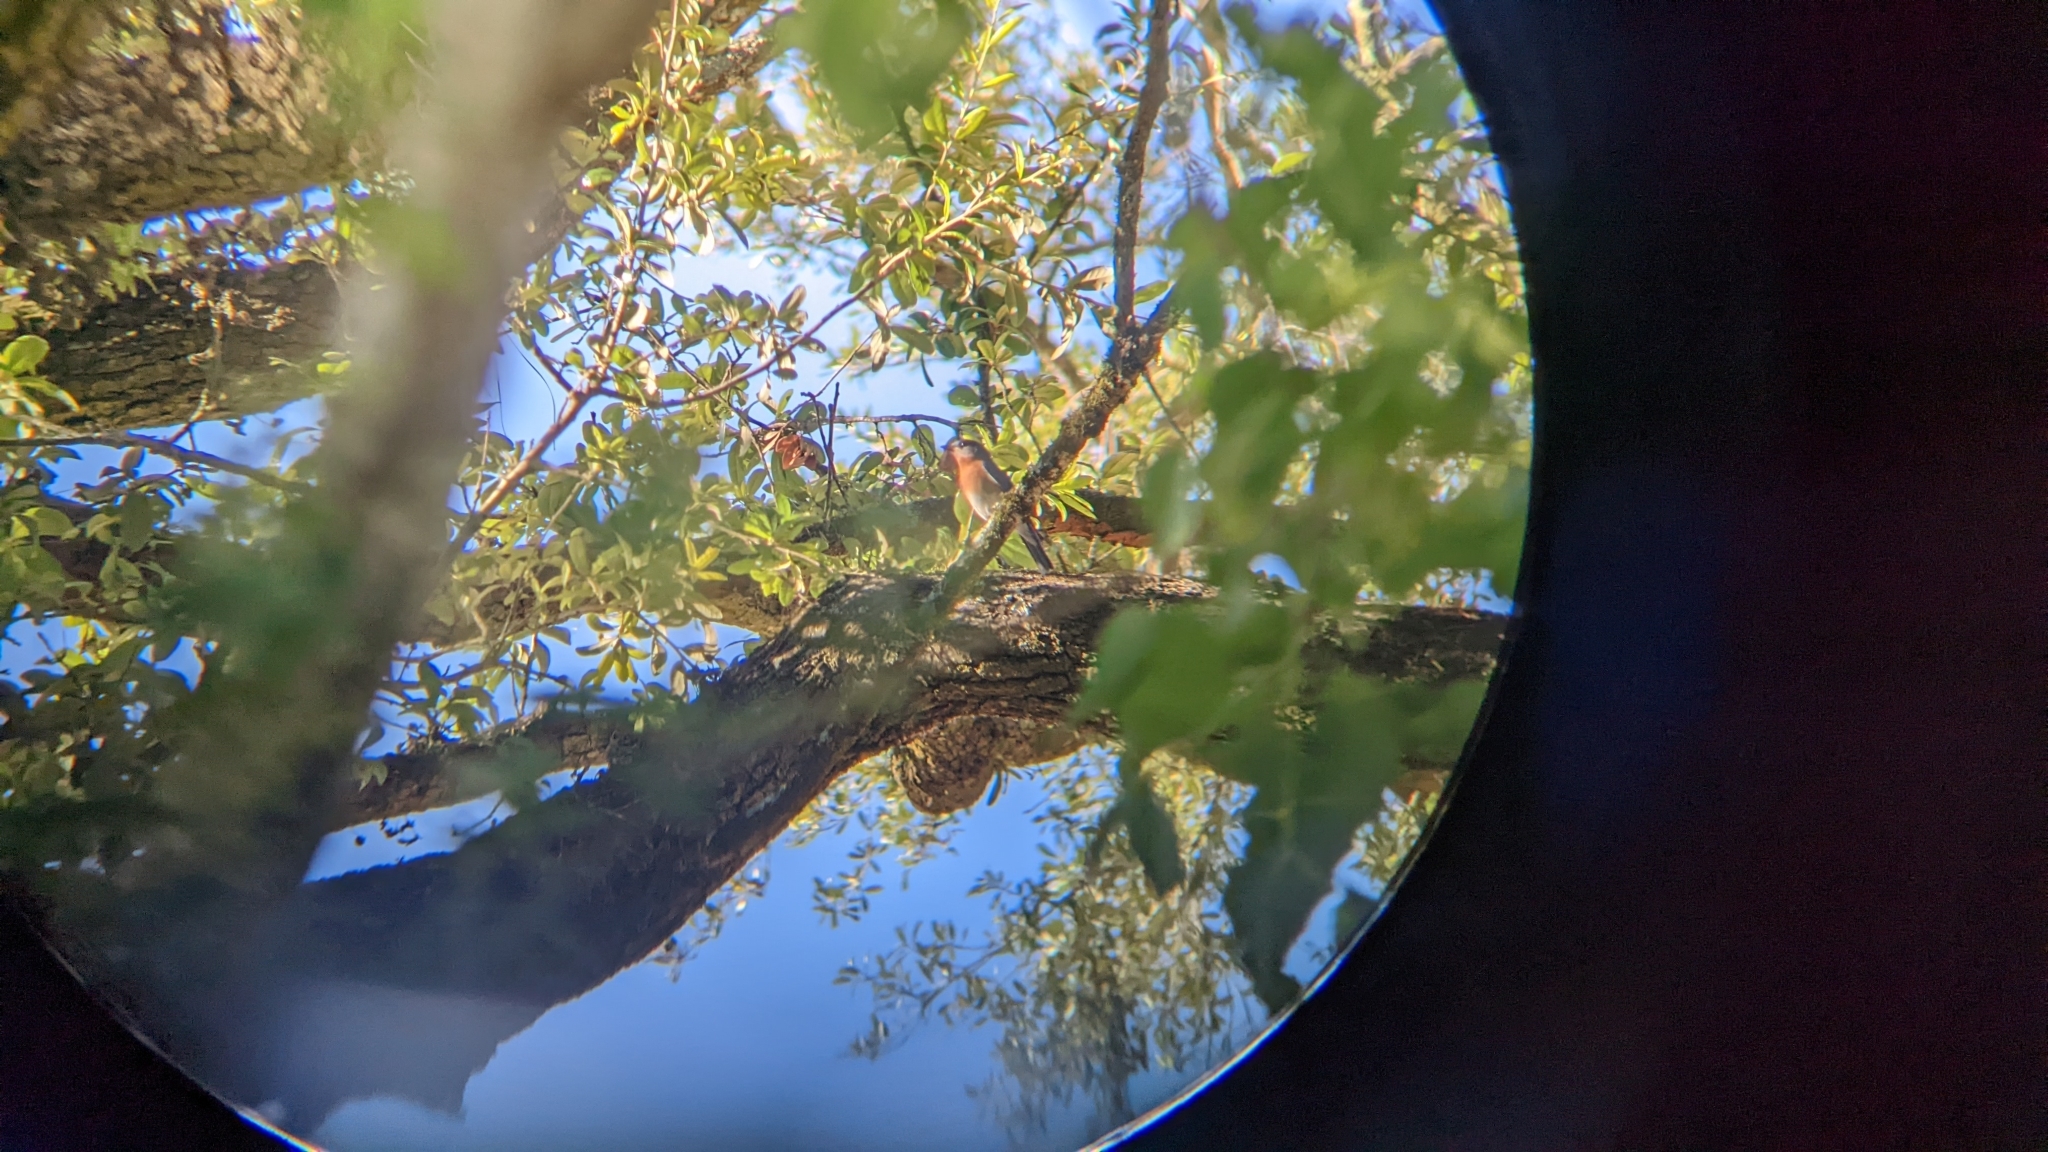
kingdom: Animalia
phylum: Chordata
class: Aves
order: Passeriformes
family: Turdidae
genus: Sialia
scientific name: Sialia sialis
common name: Eastern bluebird
